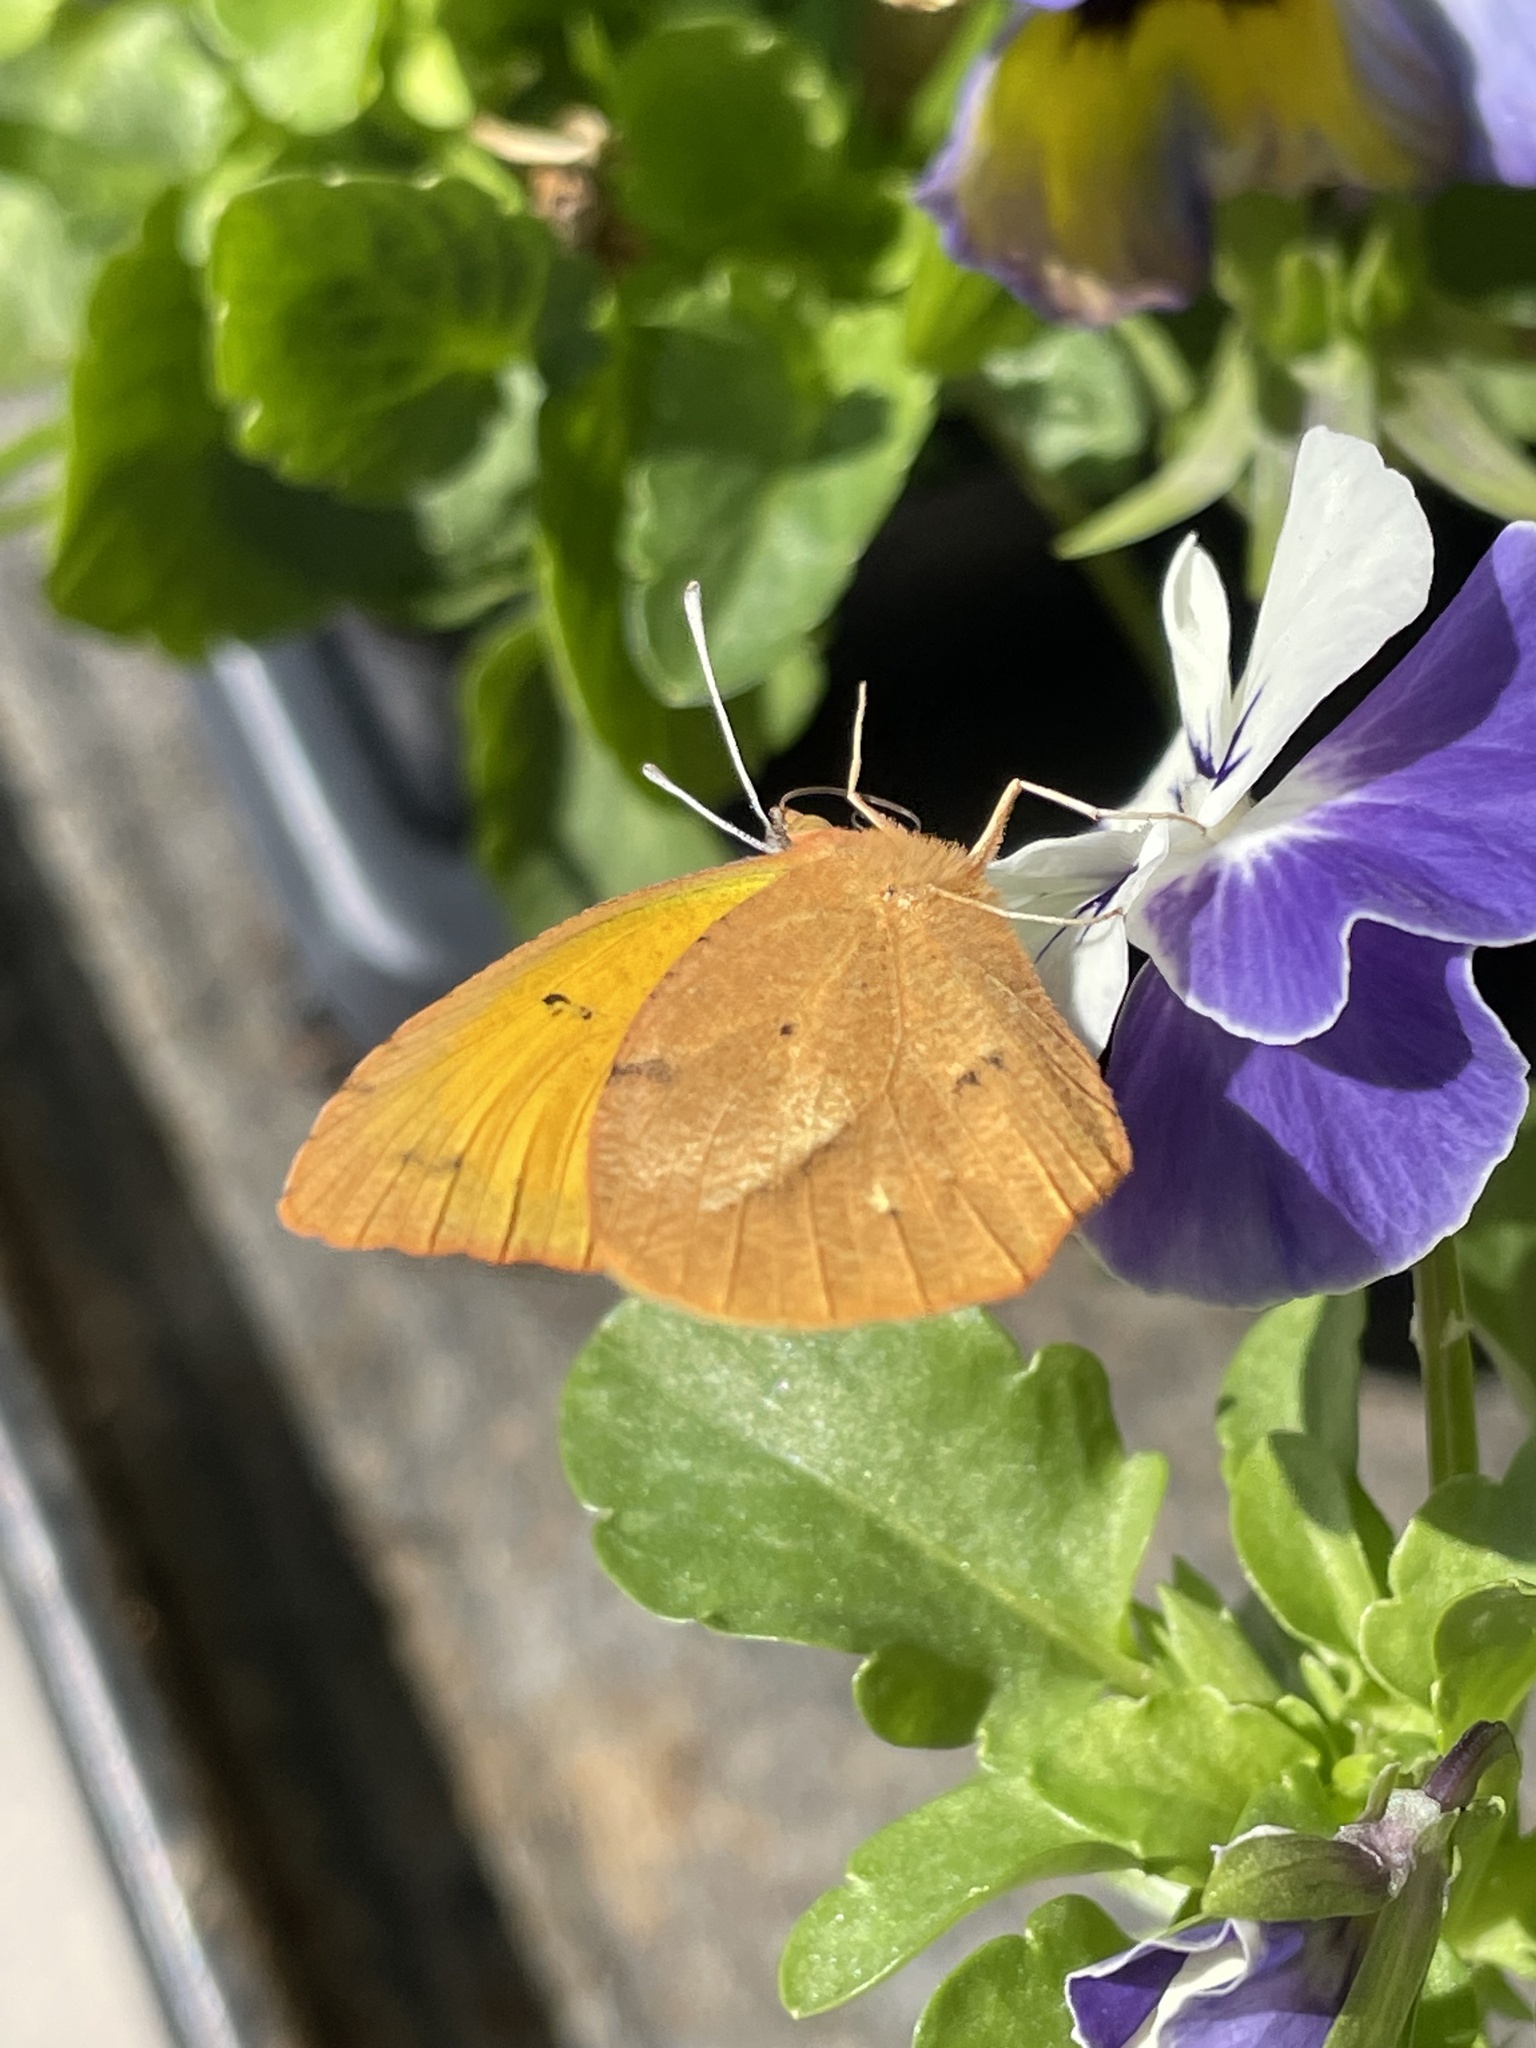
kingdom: Animalia
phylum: Arthropoda
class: Insecta
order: Lepidoptera
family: Pieridae
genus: Abaeis
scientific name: Abaeis nicippe
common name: Sleepy orange
